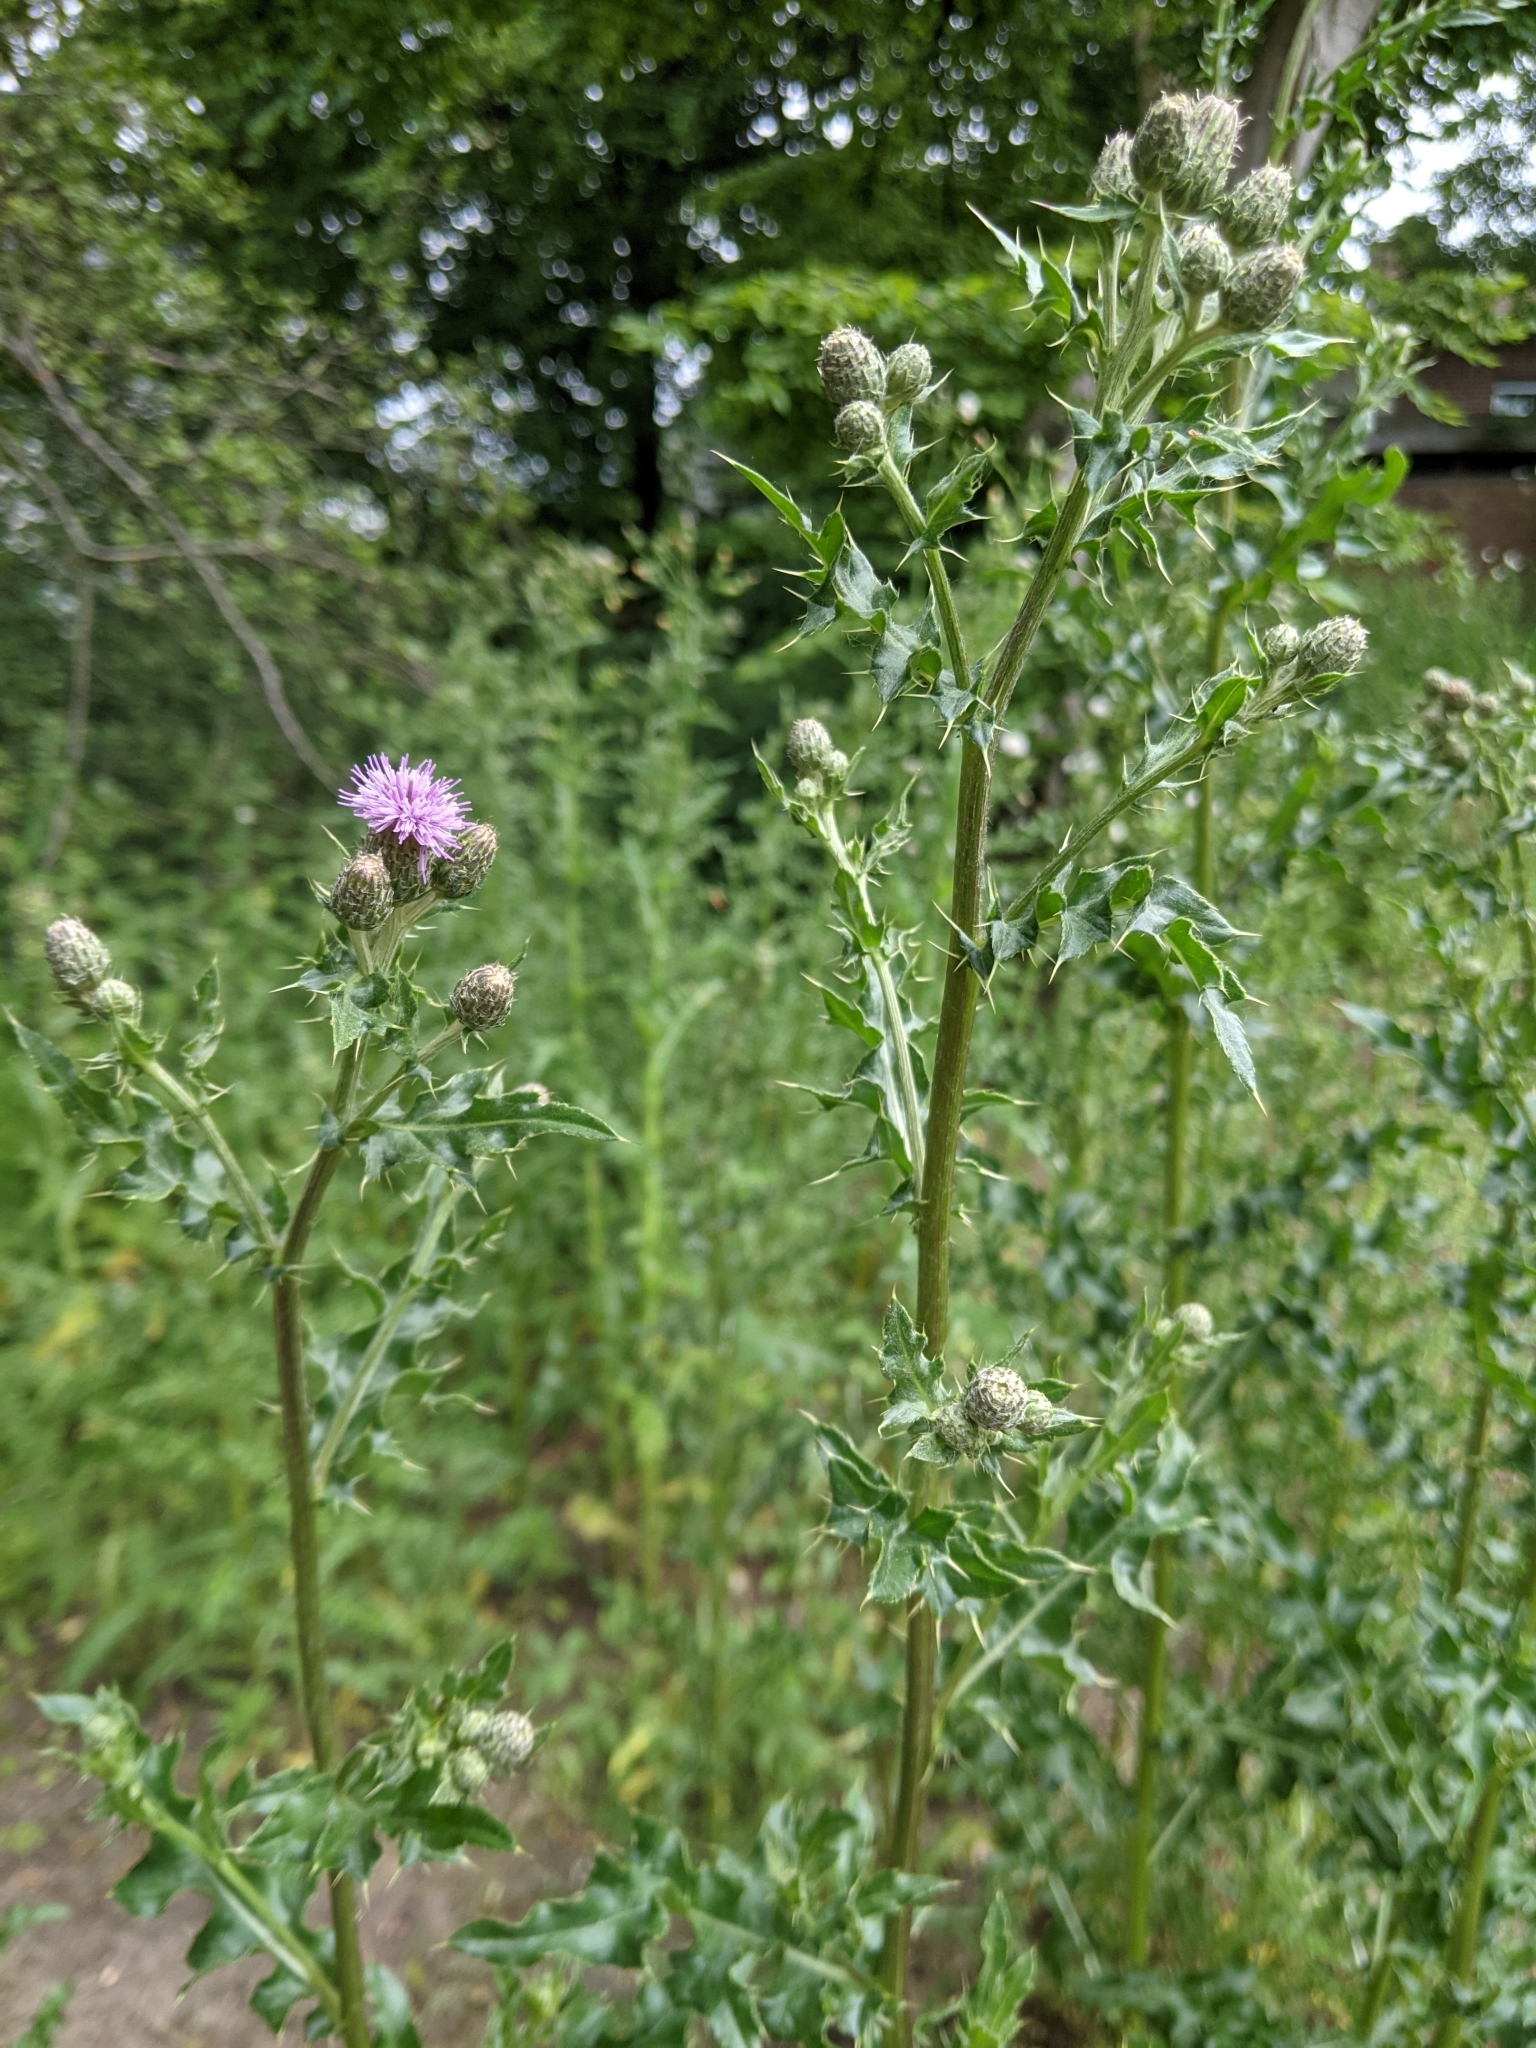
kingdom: Plantae
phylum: Tracheophyta
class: Magnoliopsida
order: Asterales
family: Asteraceae
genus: Cirsium
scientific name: Cirsium arvense
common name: Creeping thistle
